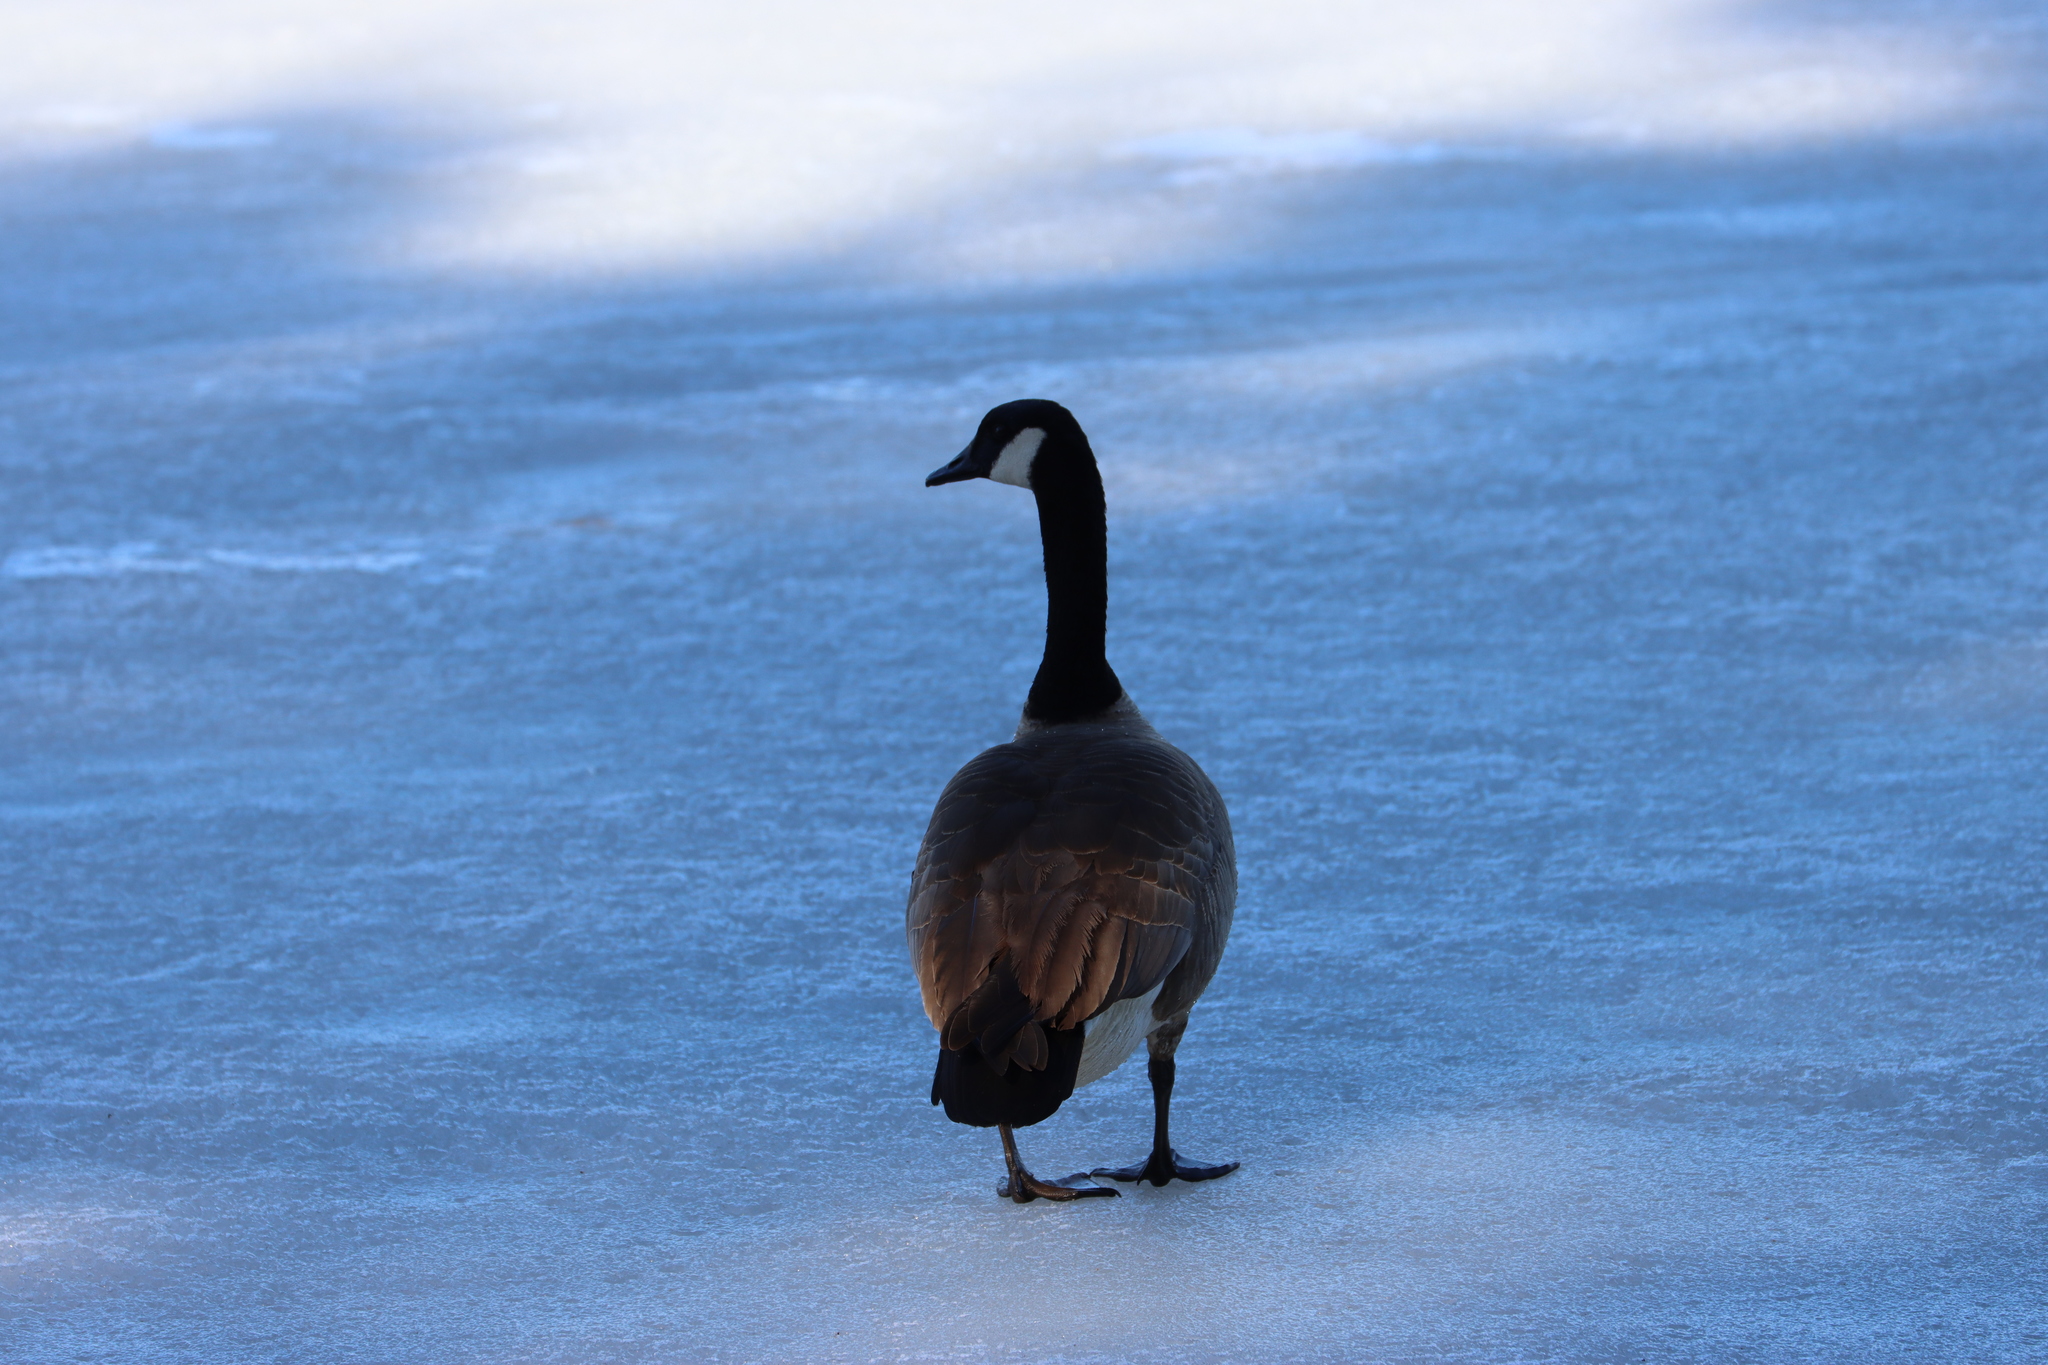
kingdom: Animalia
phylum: Chordata
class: Aves
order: Anseriformes
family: Anatidae
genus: Branta
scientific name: Branta canadensis
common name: Canada goose
